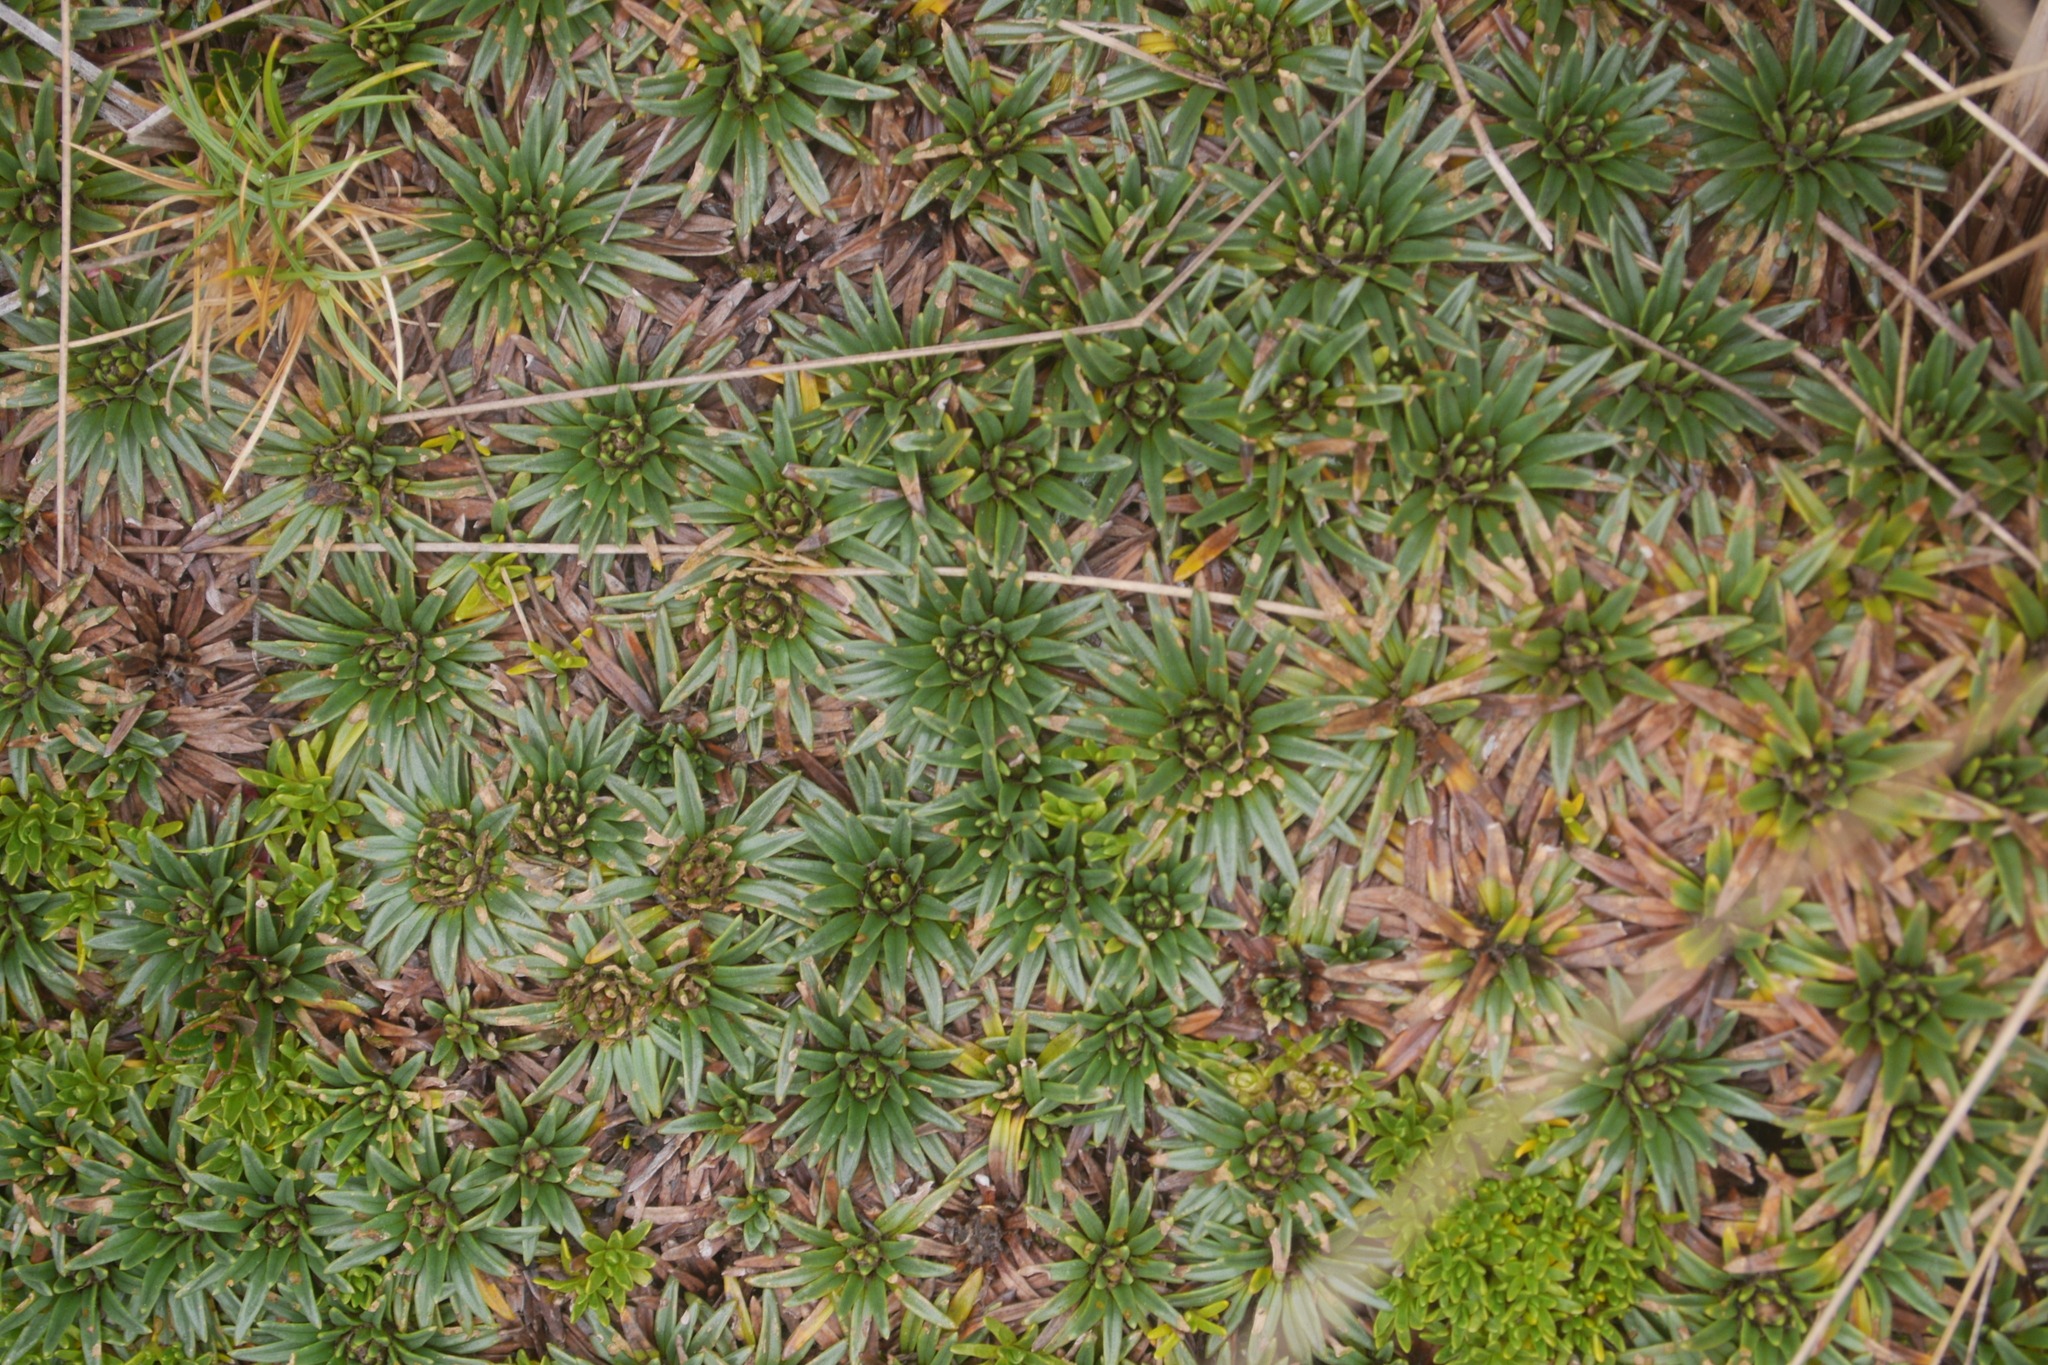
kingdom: Plantae
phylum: Tracheophyta
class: Magnoliopsida
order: Lamiales
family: Plantaginaceae
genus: Plantago
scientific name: Plantago rigida
